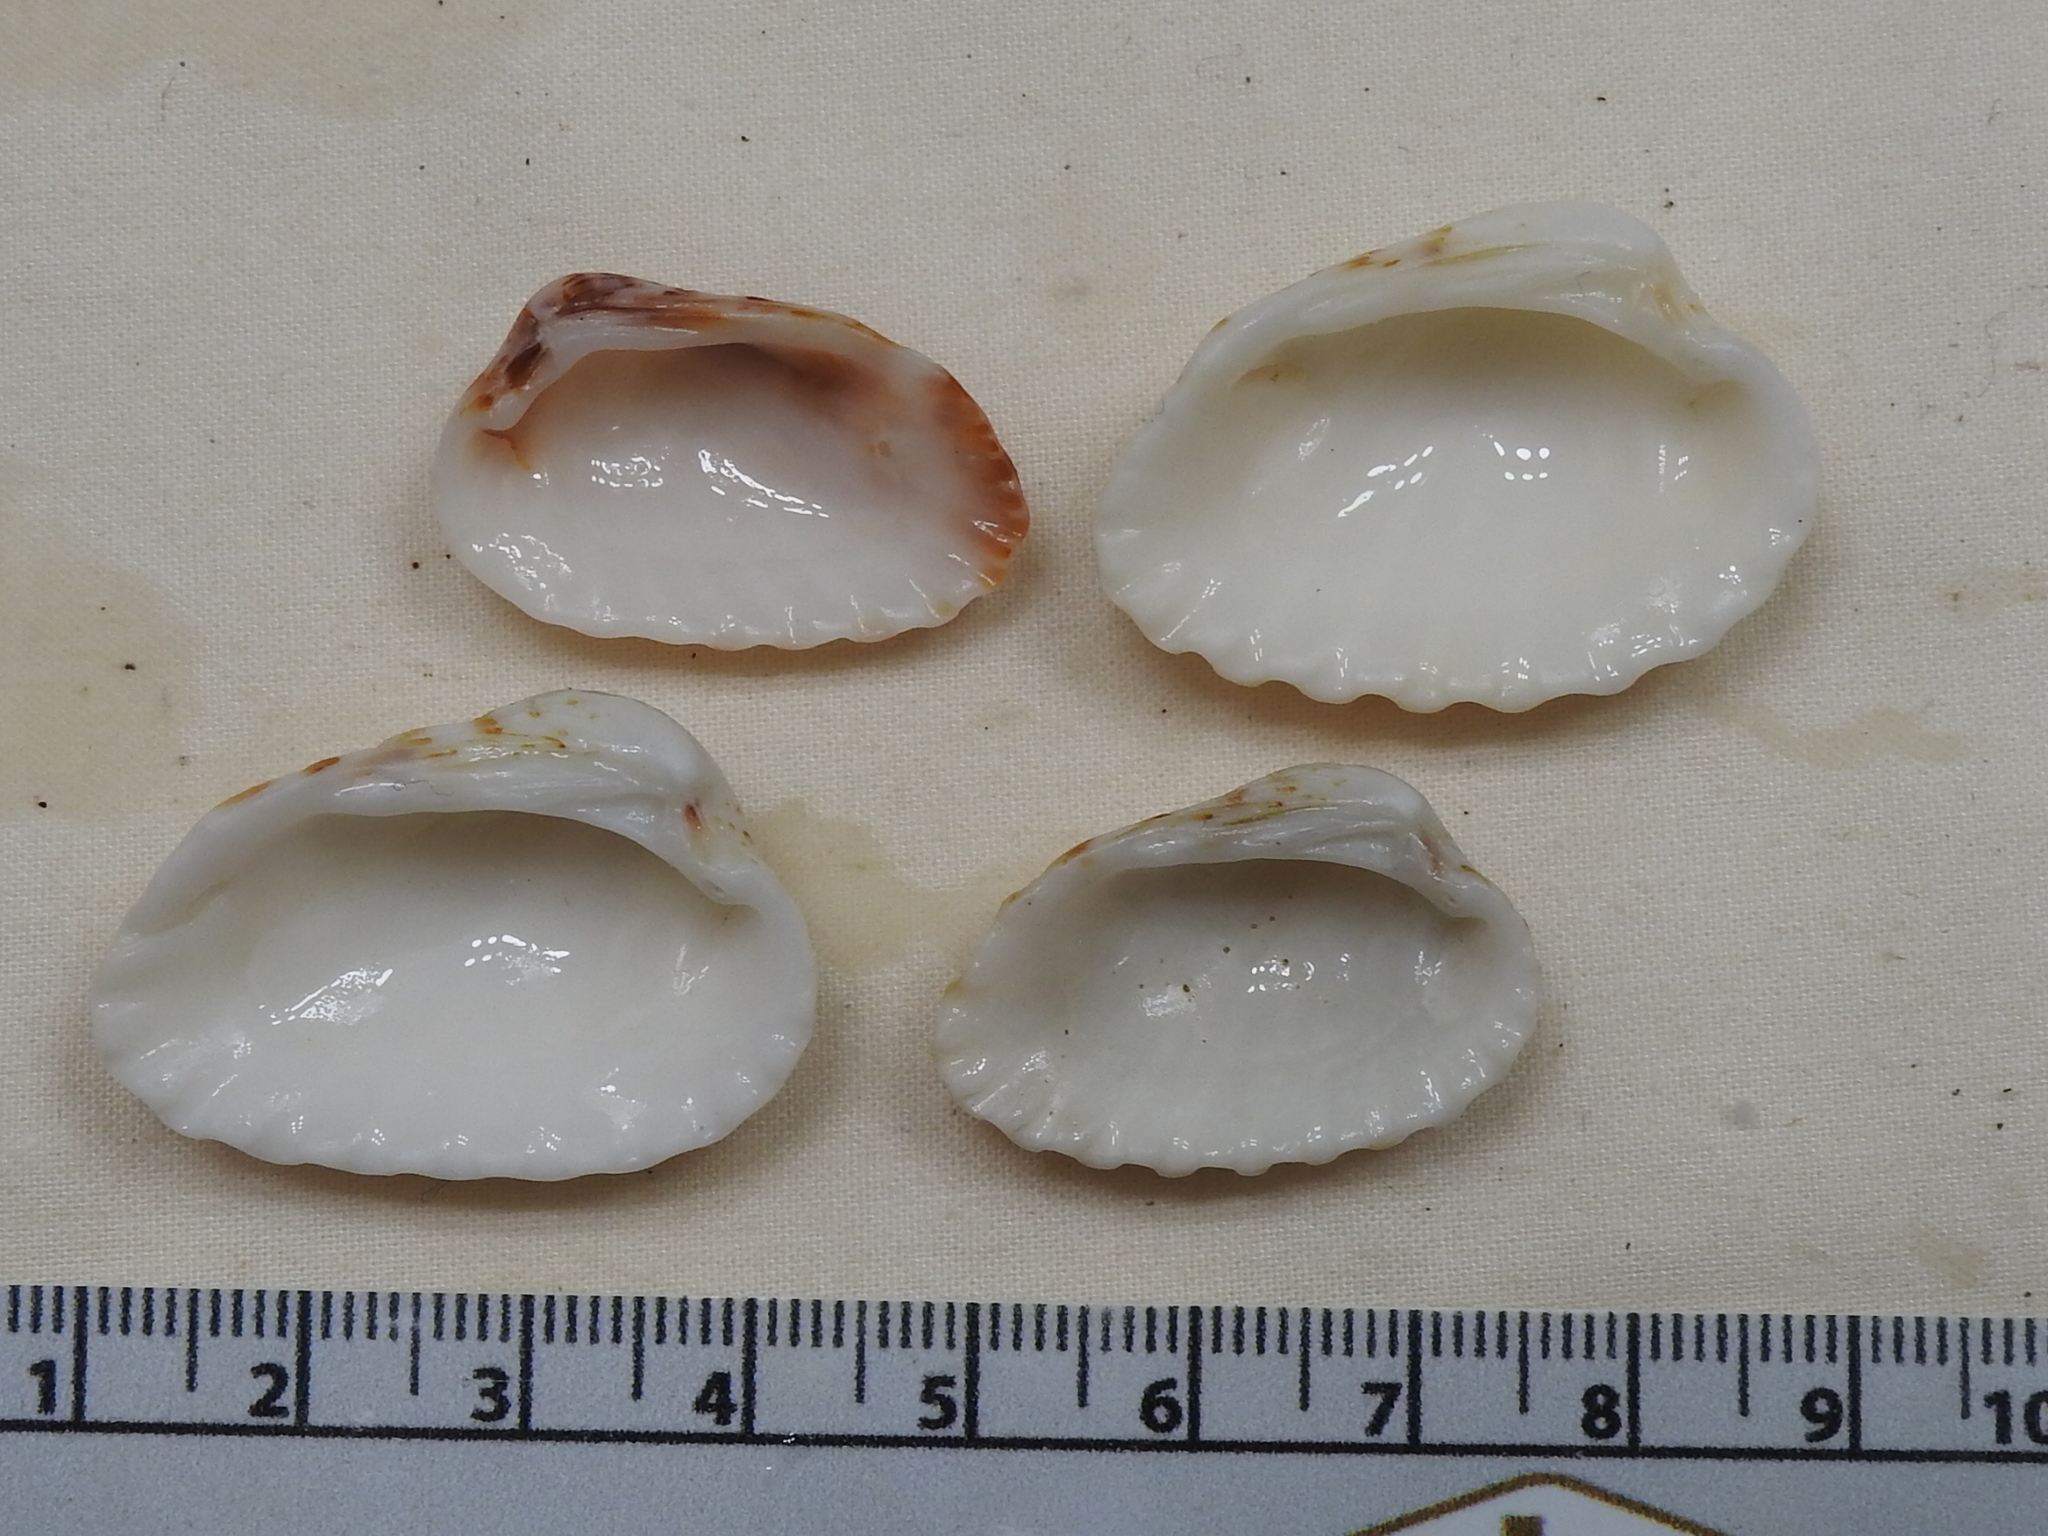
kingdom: Animalia
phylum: Mollusca
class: Bivalvia
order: Carditida
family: Carditidae
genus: Cardites
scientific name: Cardites floridanus
